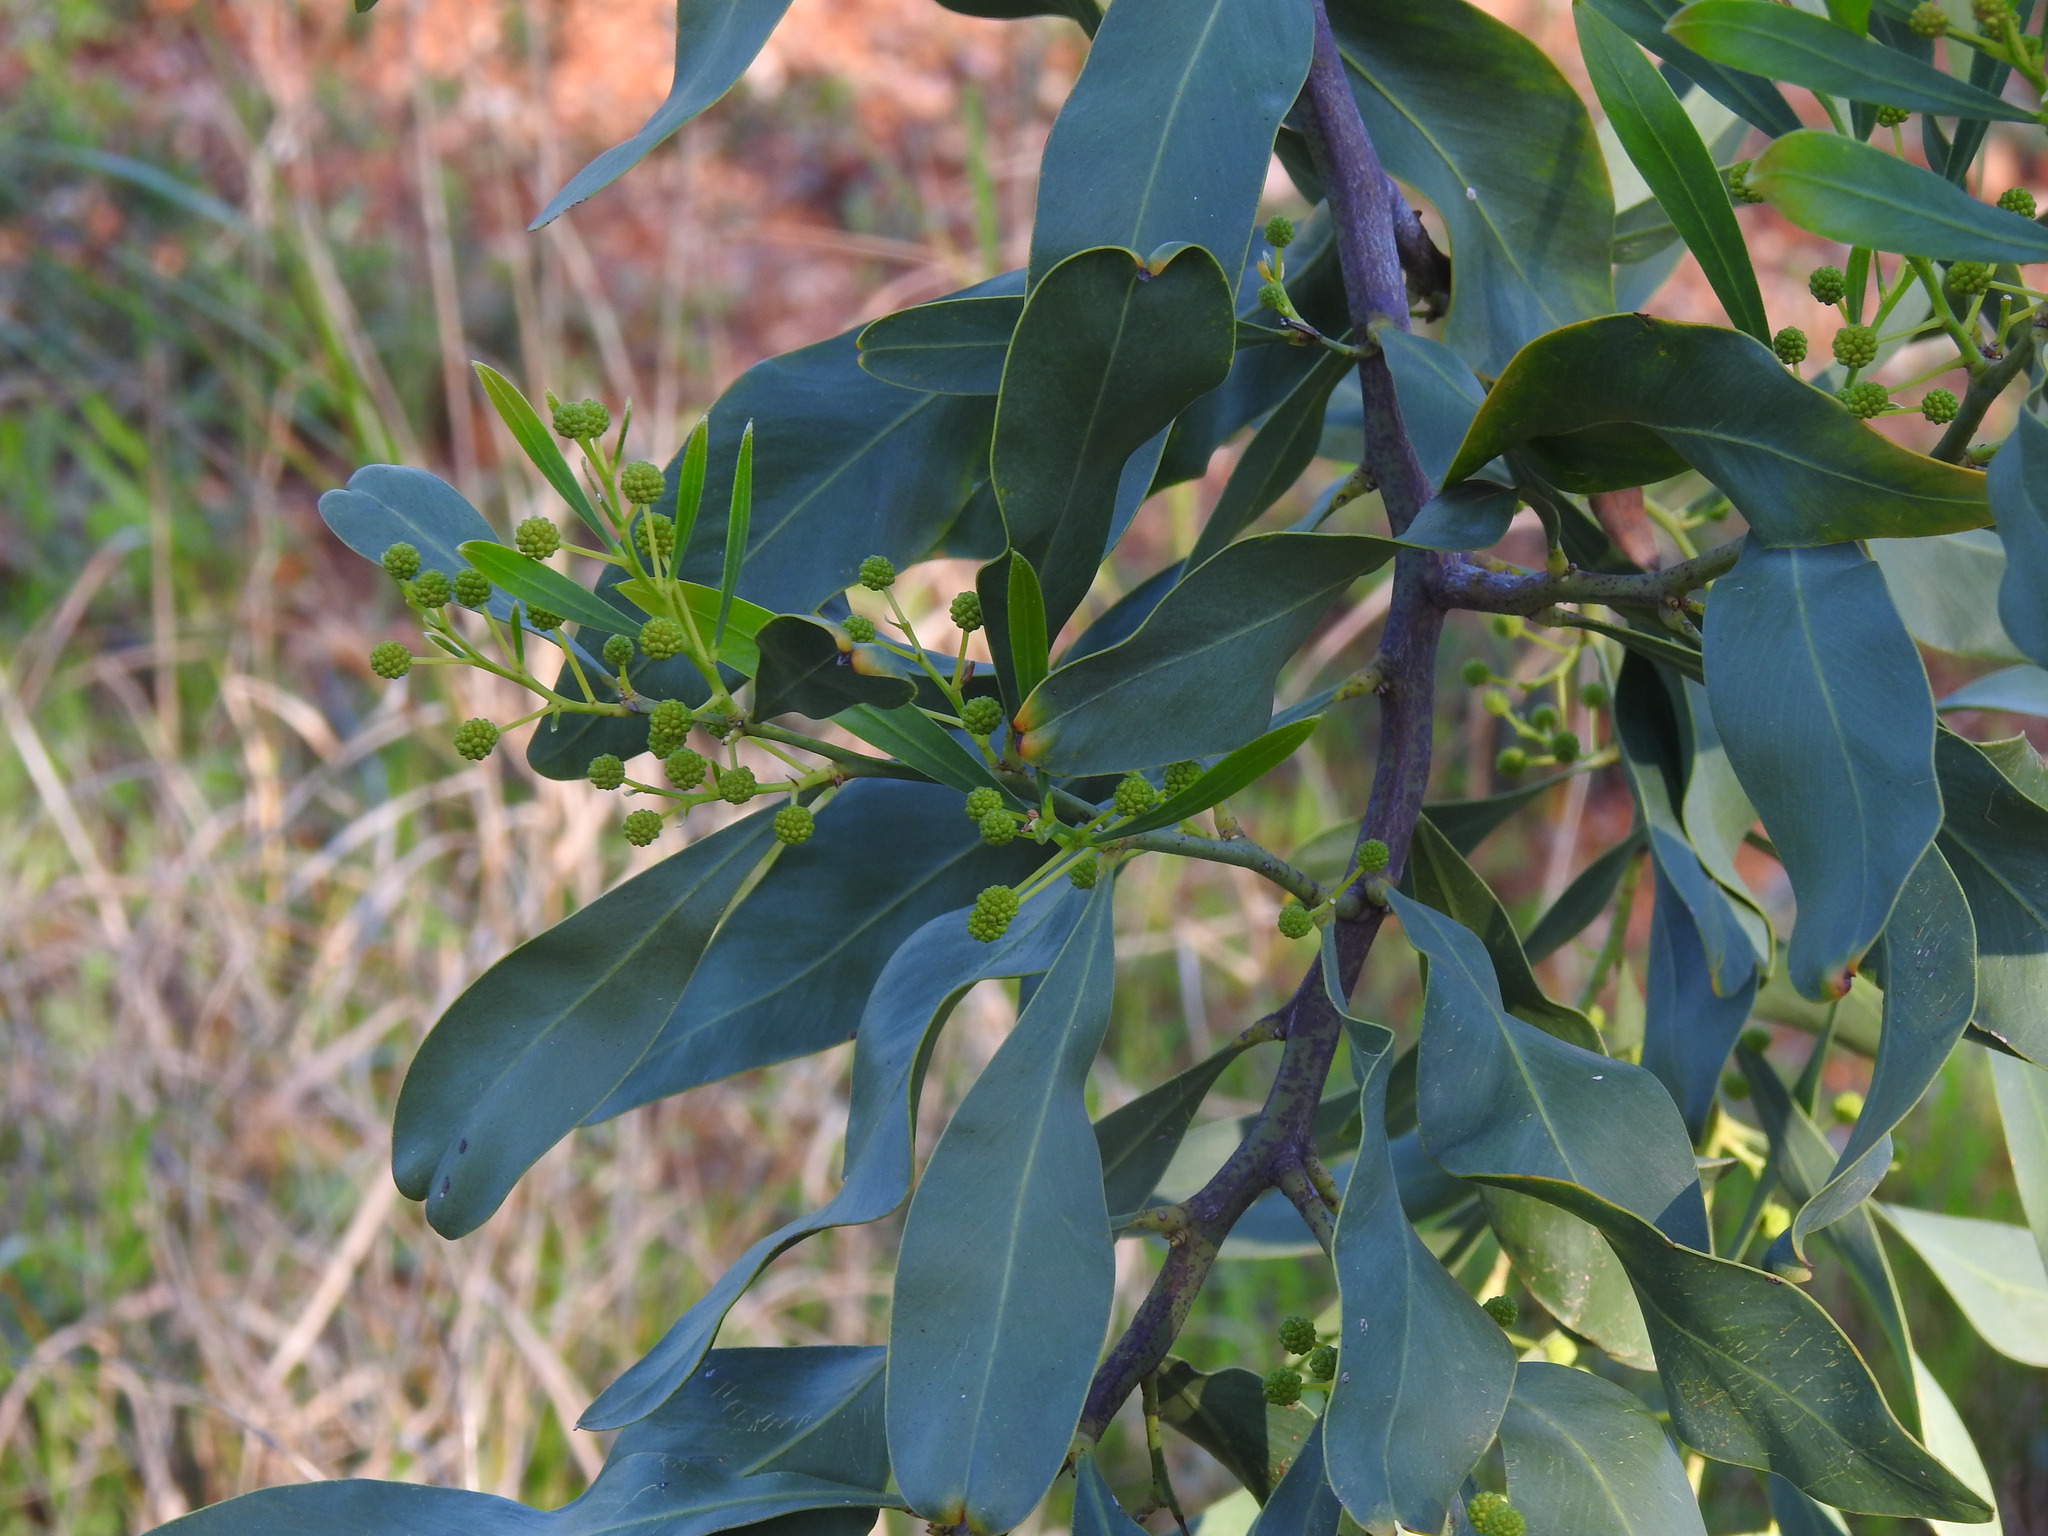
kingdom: Plantae
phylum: Tracheophyta
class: Magnoliopsida
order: Fabales
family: Fabaceae
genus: Acacia
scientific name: Acacia saligna
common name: Orange wattle
